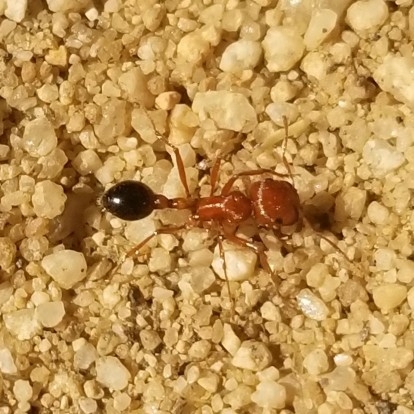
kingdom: Animalia
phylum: Arthropoda
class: Insecta
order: Hymenoptera
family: Formicidae
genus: Pogonomyrmex
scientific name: Pogonomyrmex californicus
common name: California harvester ant
